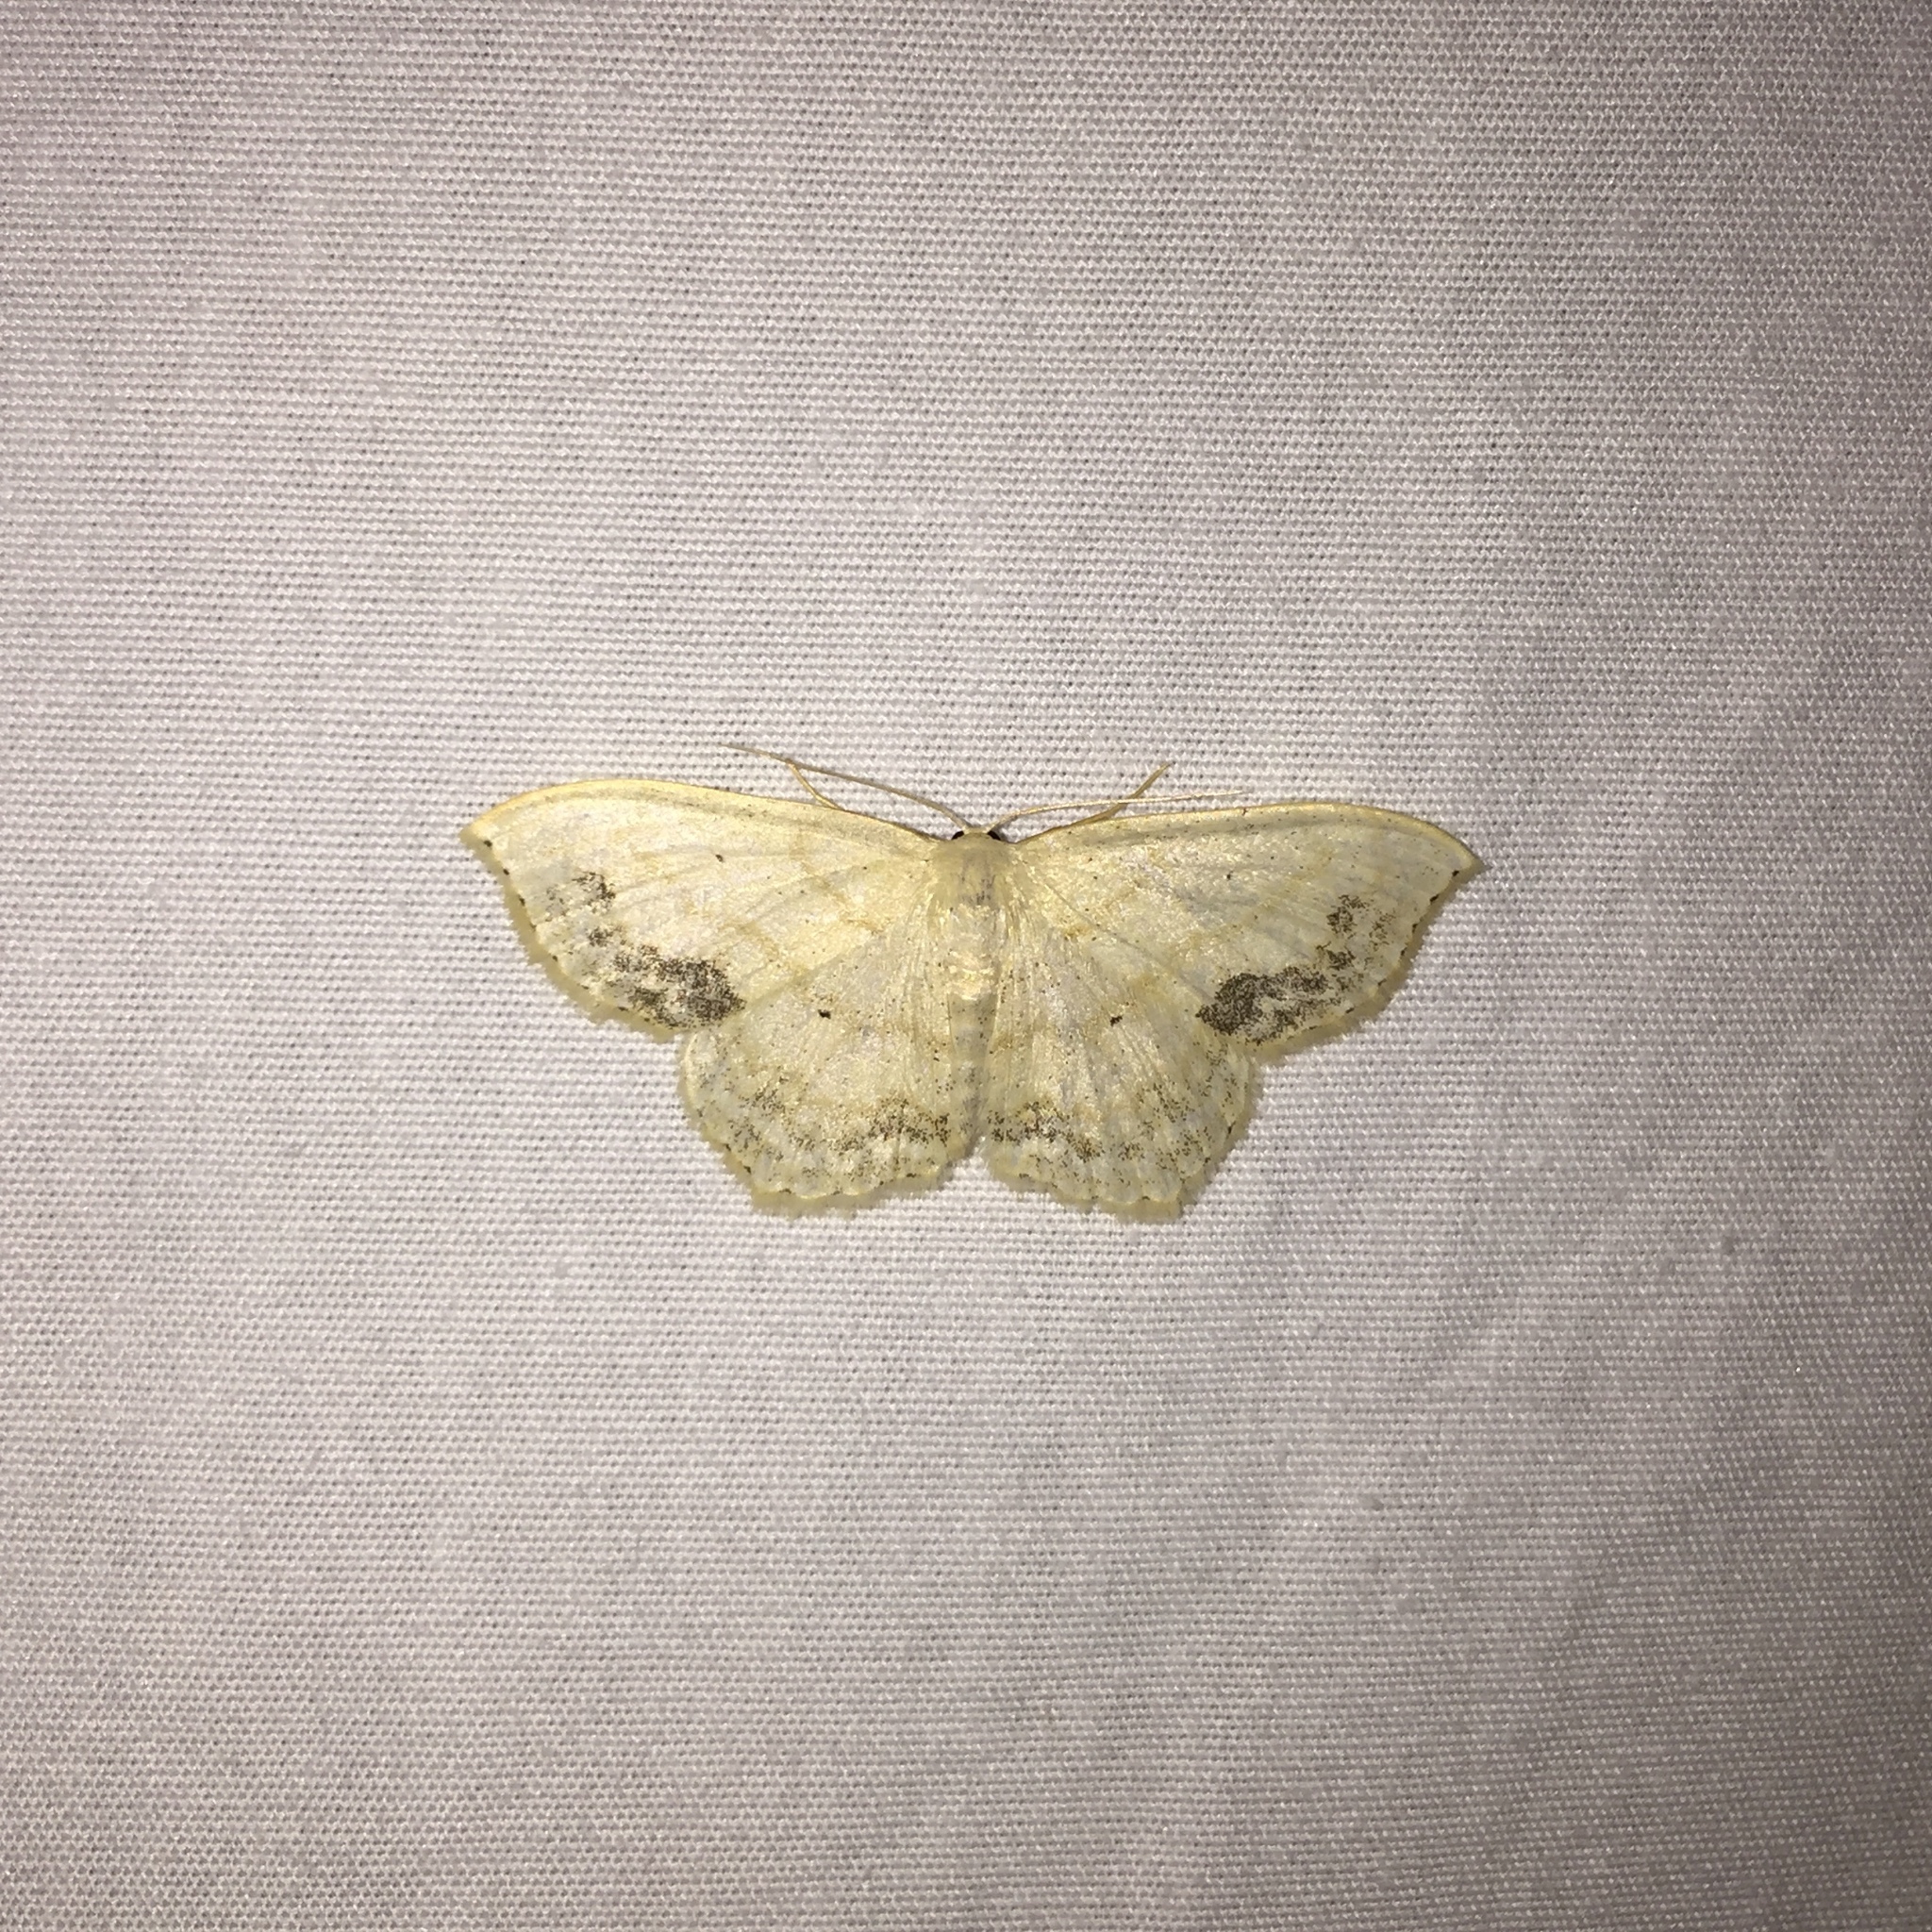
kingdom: Animalia
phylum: Arthropoda
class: Insecta
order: Lepidoptera
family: Geometridae
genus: Scopula
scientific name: Scopula limboundata
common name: Large lace border
